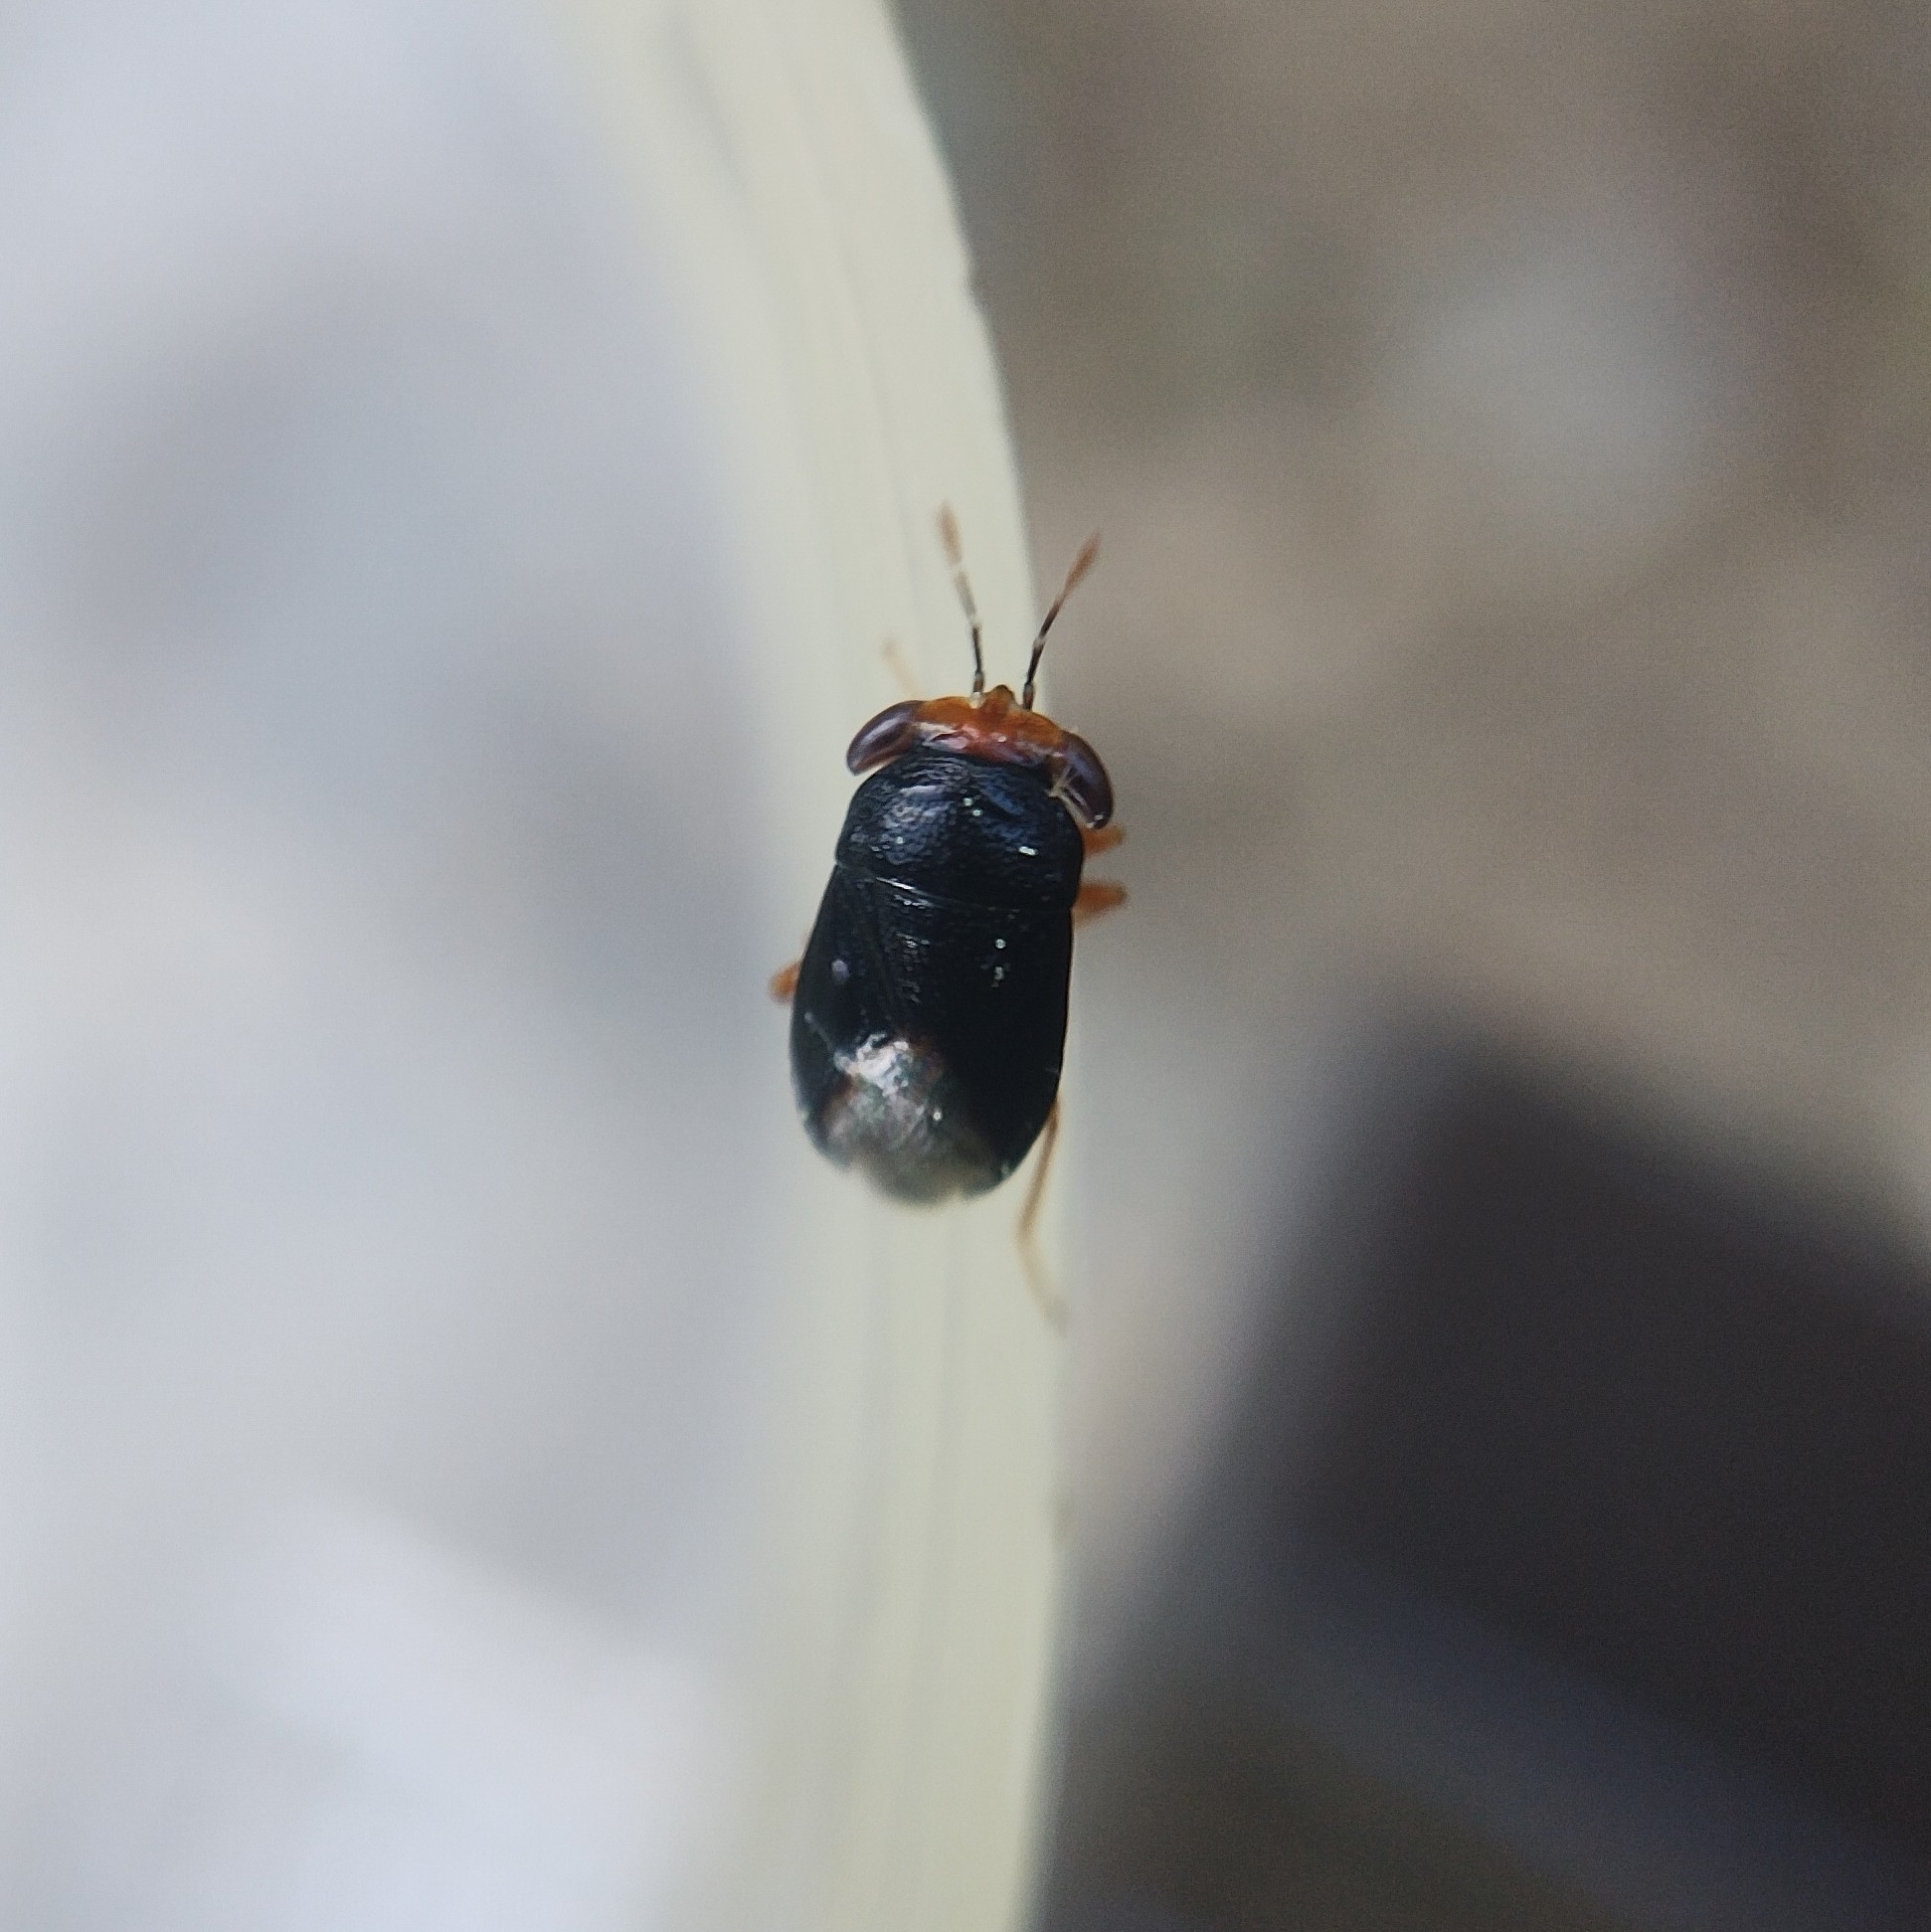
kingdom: Animalia
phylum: Arthropoda
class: Insecta
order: Hemiptera
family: Geocoridae
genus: Geocoris
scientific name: Geocoris erythrocephala
